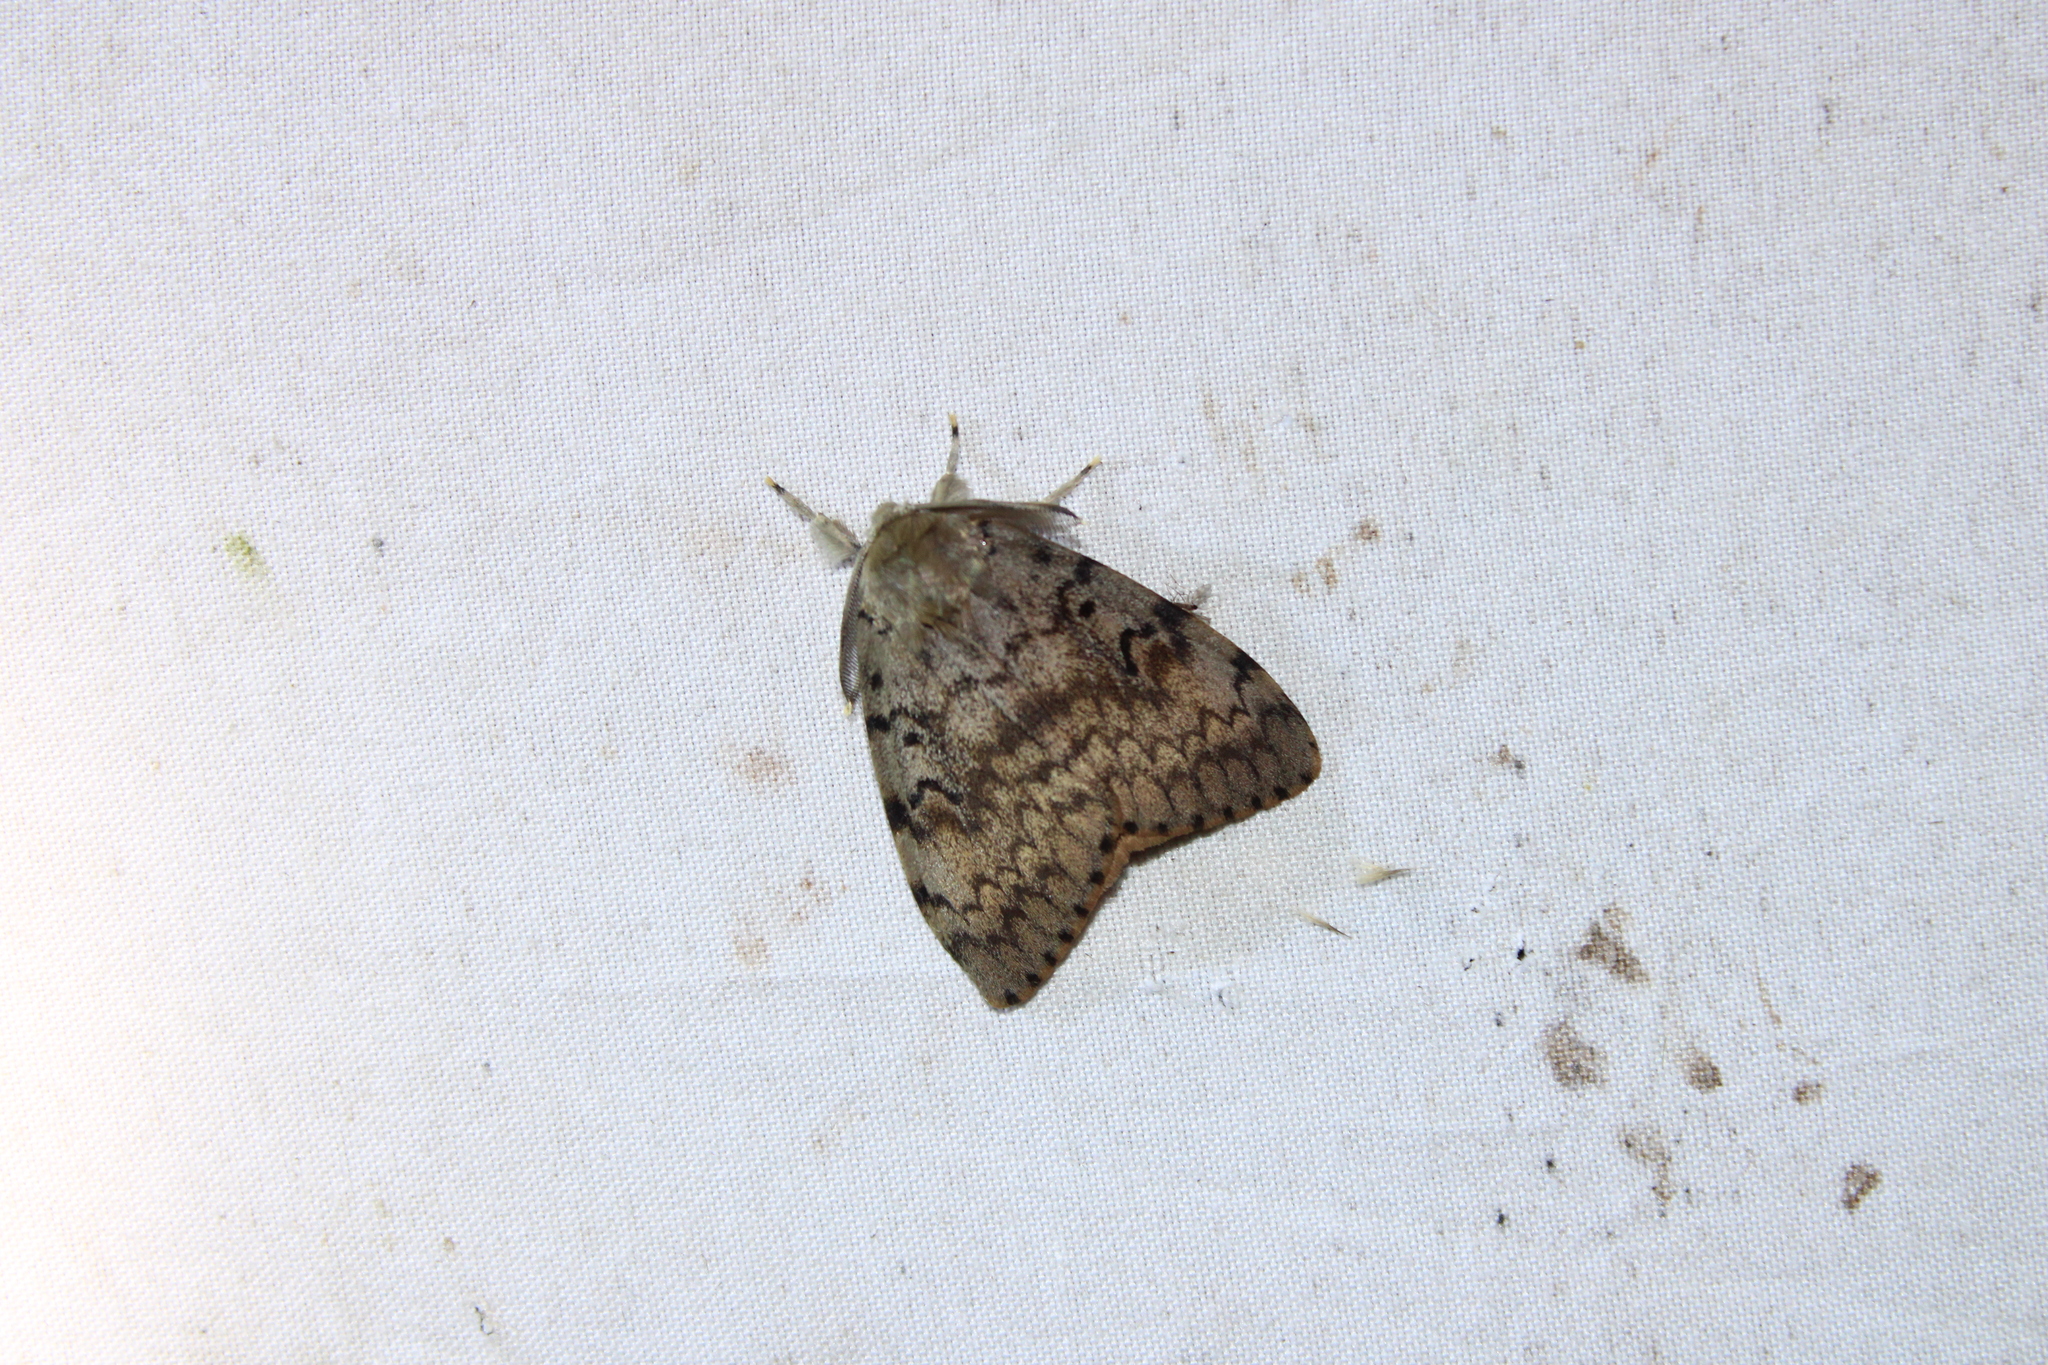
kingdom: Animalia
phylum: Arthropoda
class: Insecta
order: Lepidoptera
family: Erebidae
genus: Lymantria
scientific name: Lymantria dispar
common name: Gypsy moth
